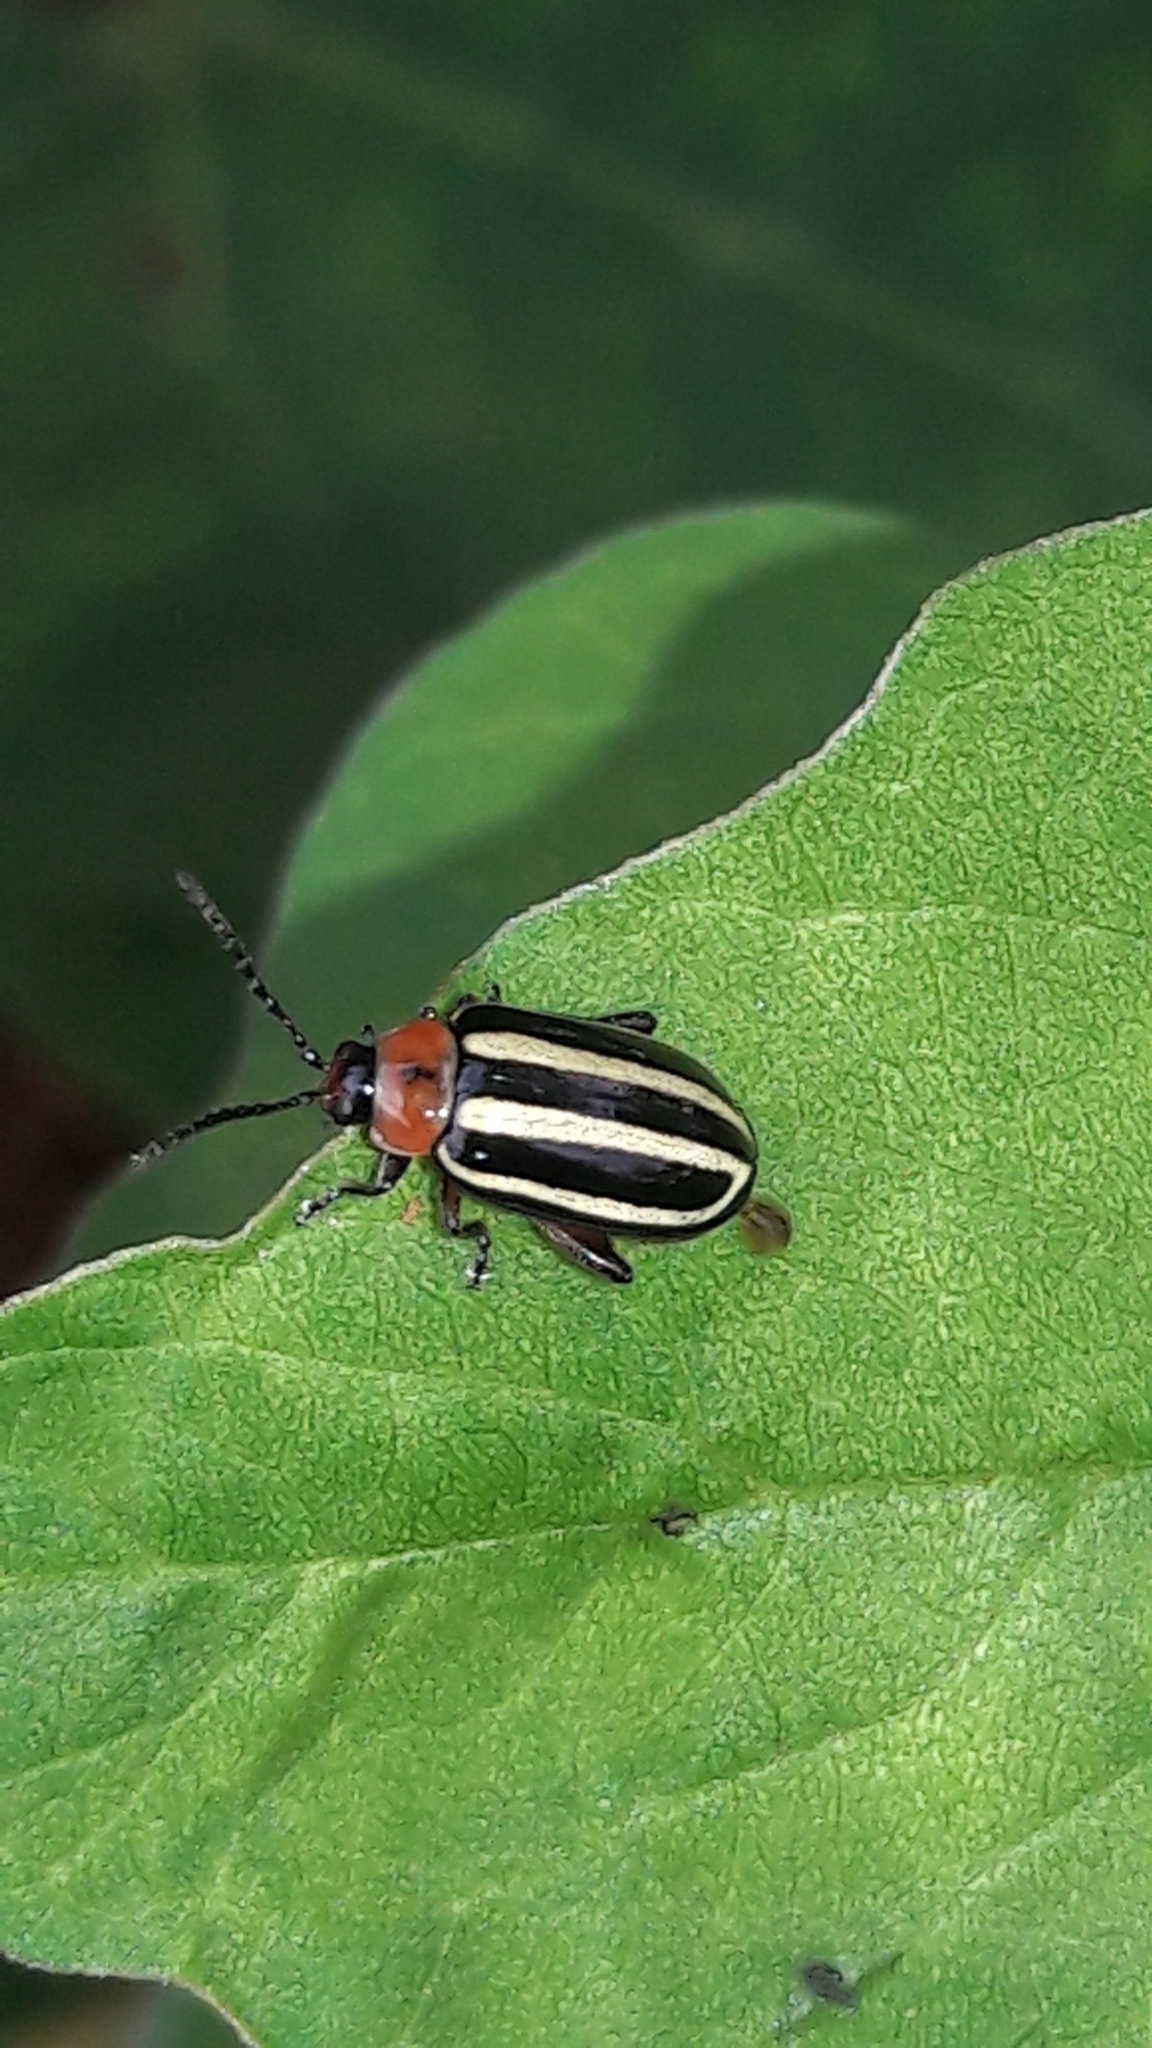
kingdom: Animalia
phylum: Arthropoda
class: Insecta
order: Coleoptera
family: Chrysomelidae
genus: Disonycha
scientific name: Disonycha glabrata
